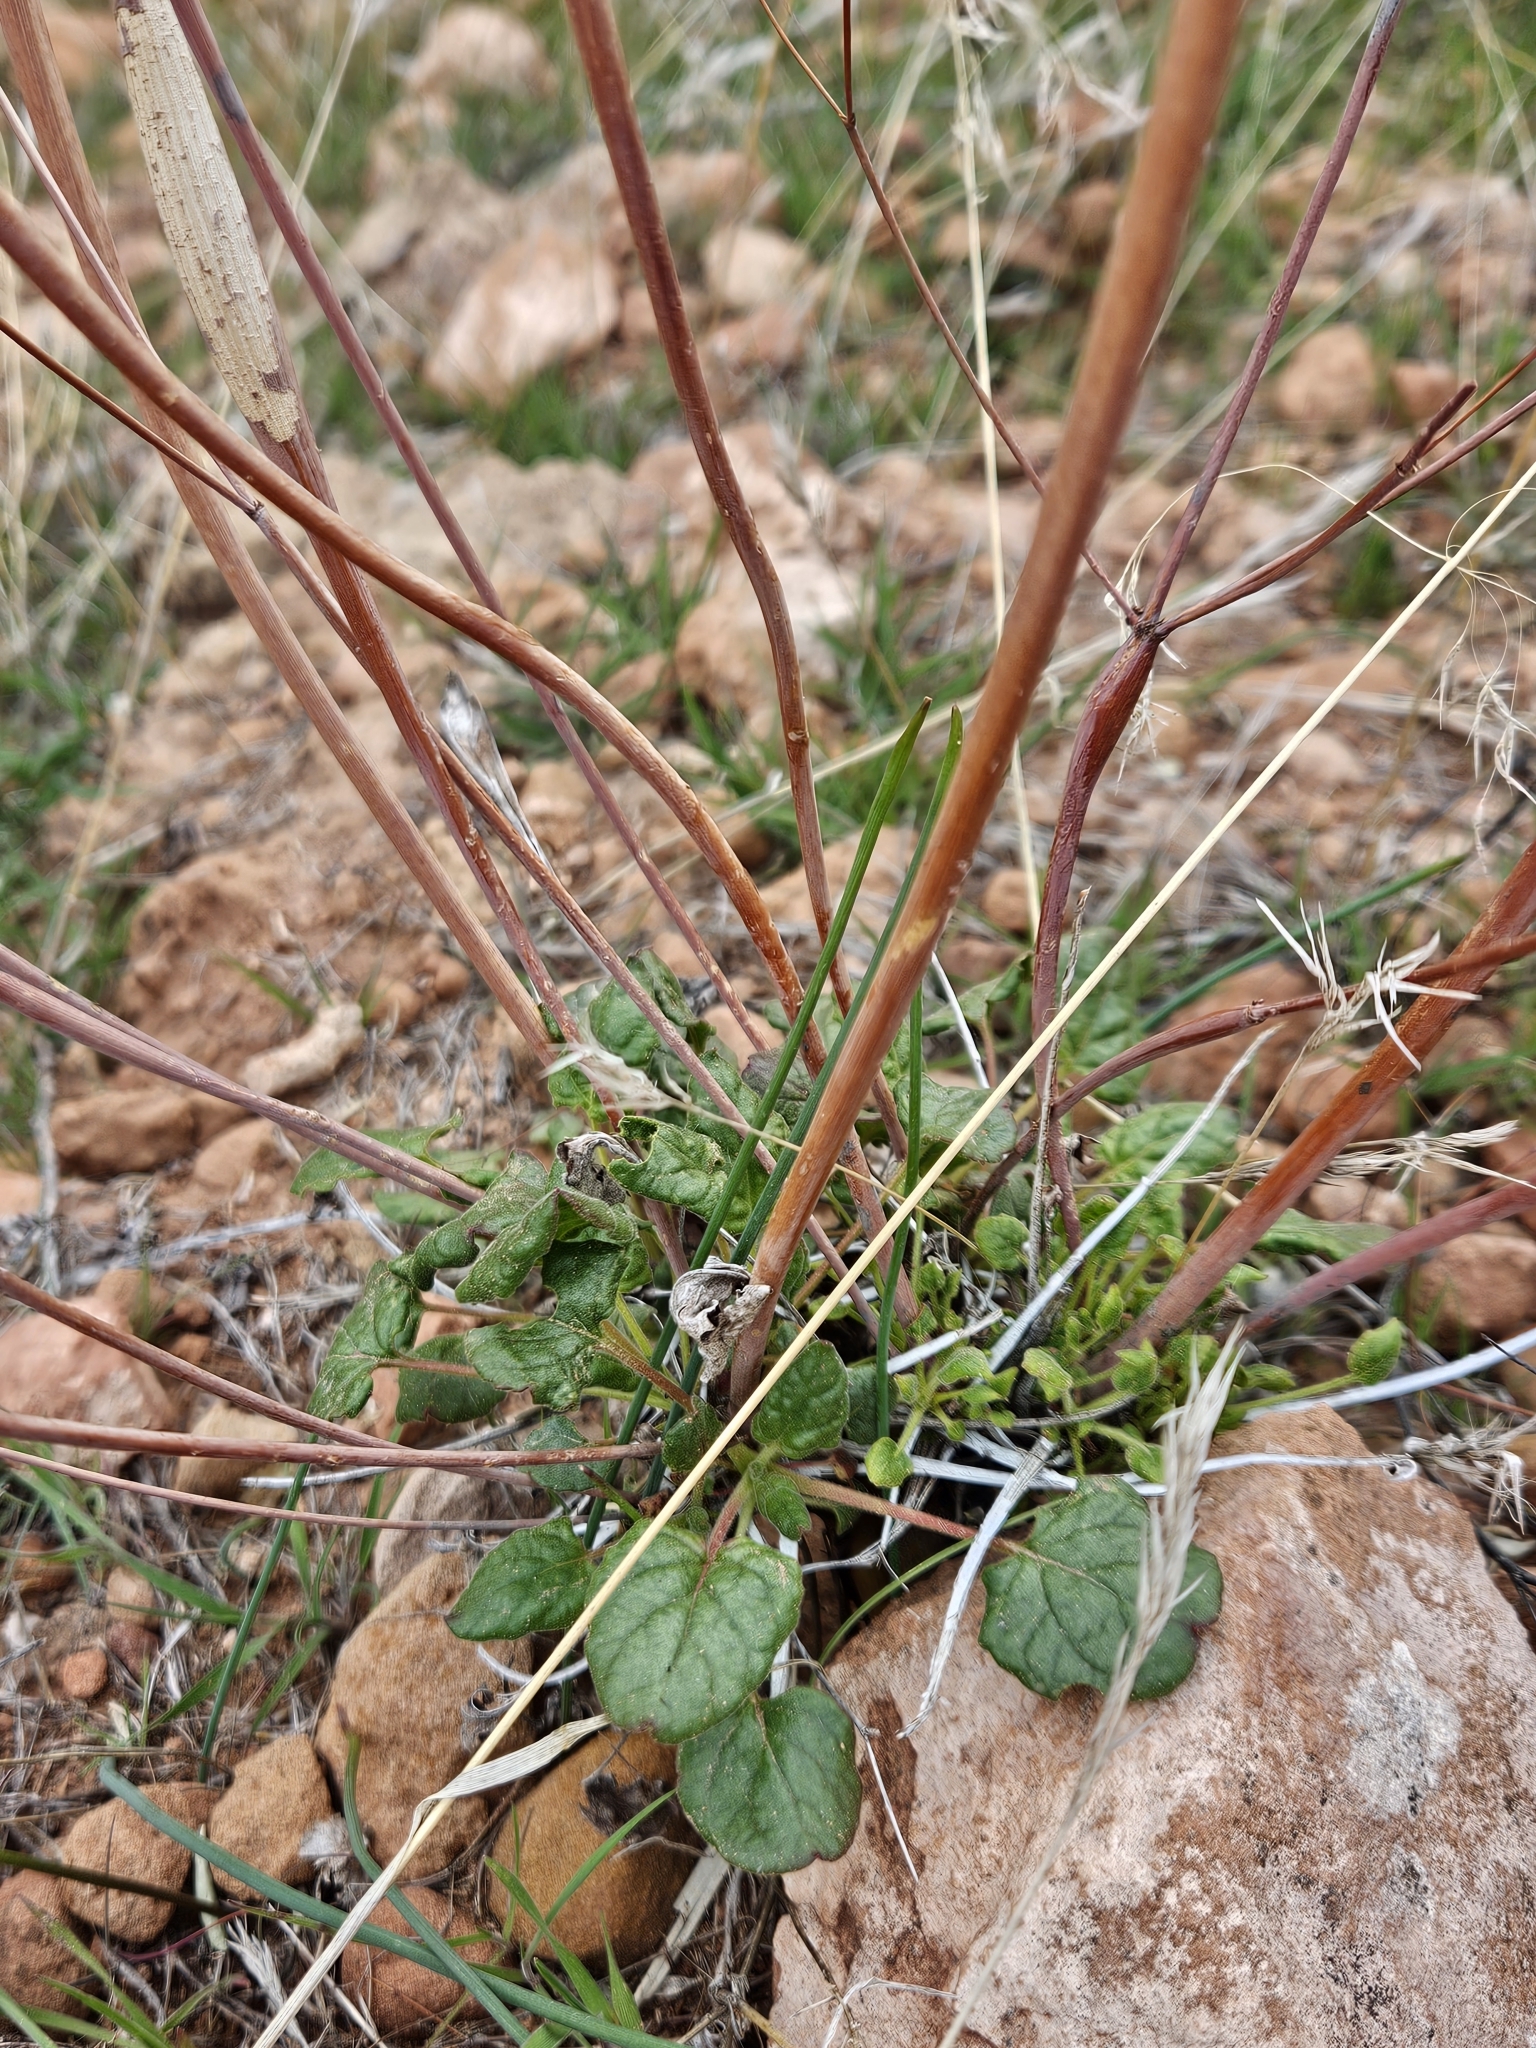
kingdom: Plantae
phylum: Tracheophyta
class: Magnoliopsida
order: Caryophyllales
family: Polygonaceae
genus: Eriogonum
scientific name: Eriogonum inflatum
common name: Desert trumpet
